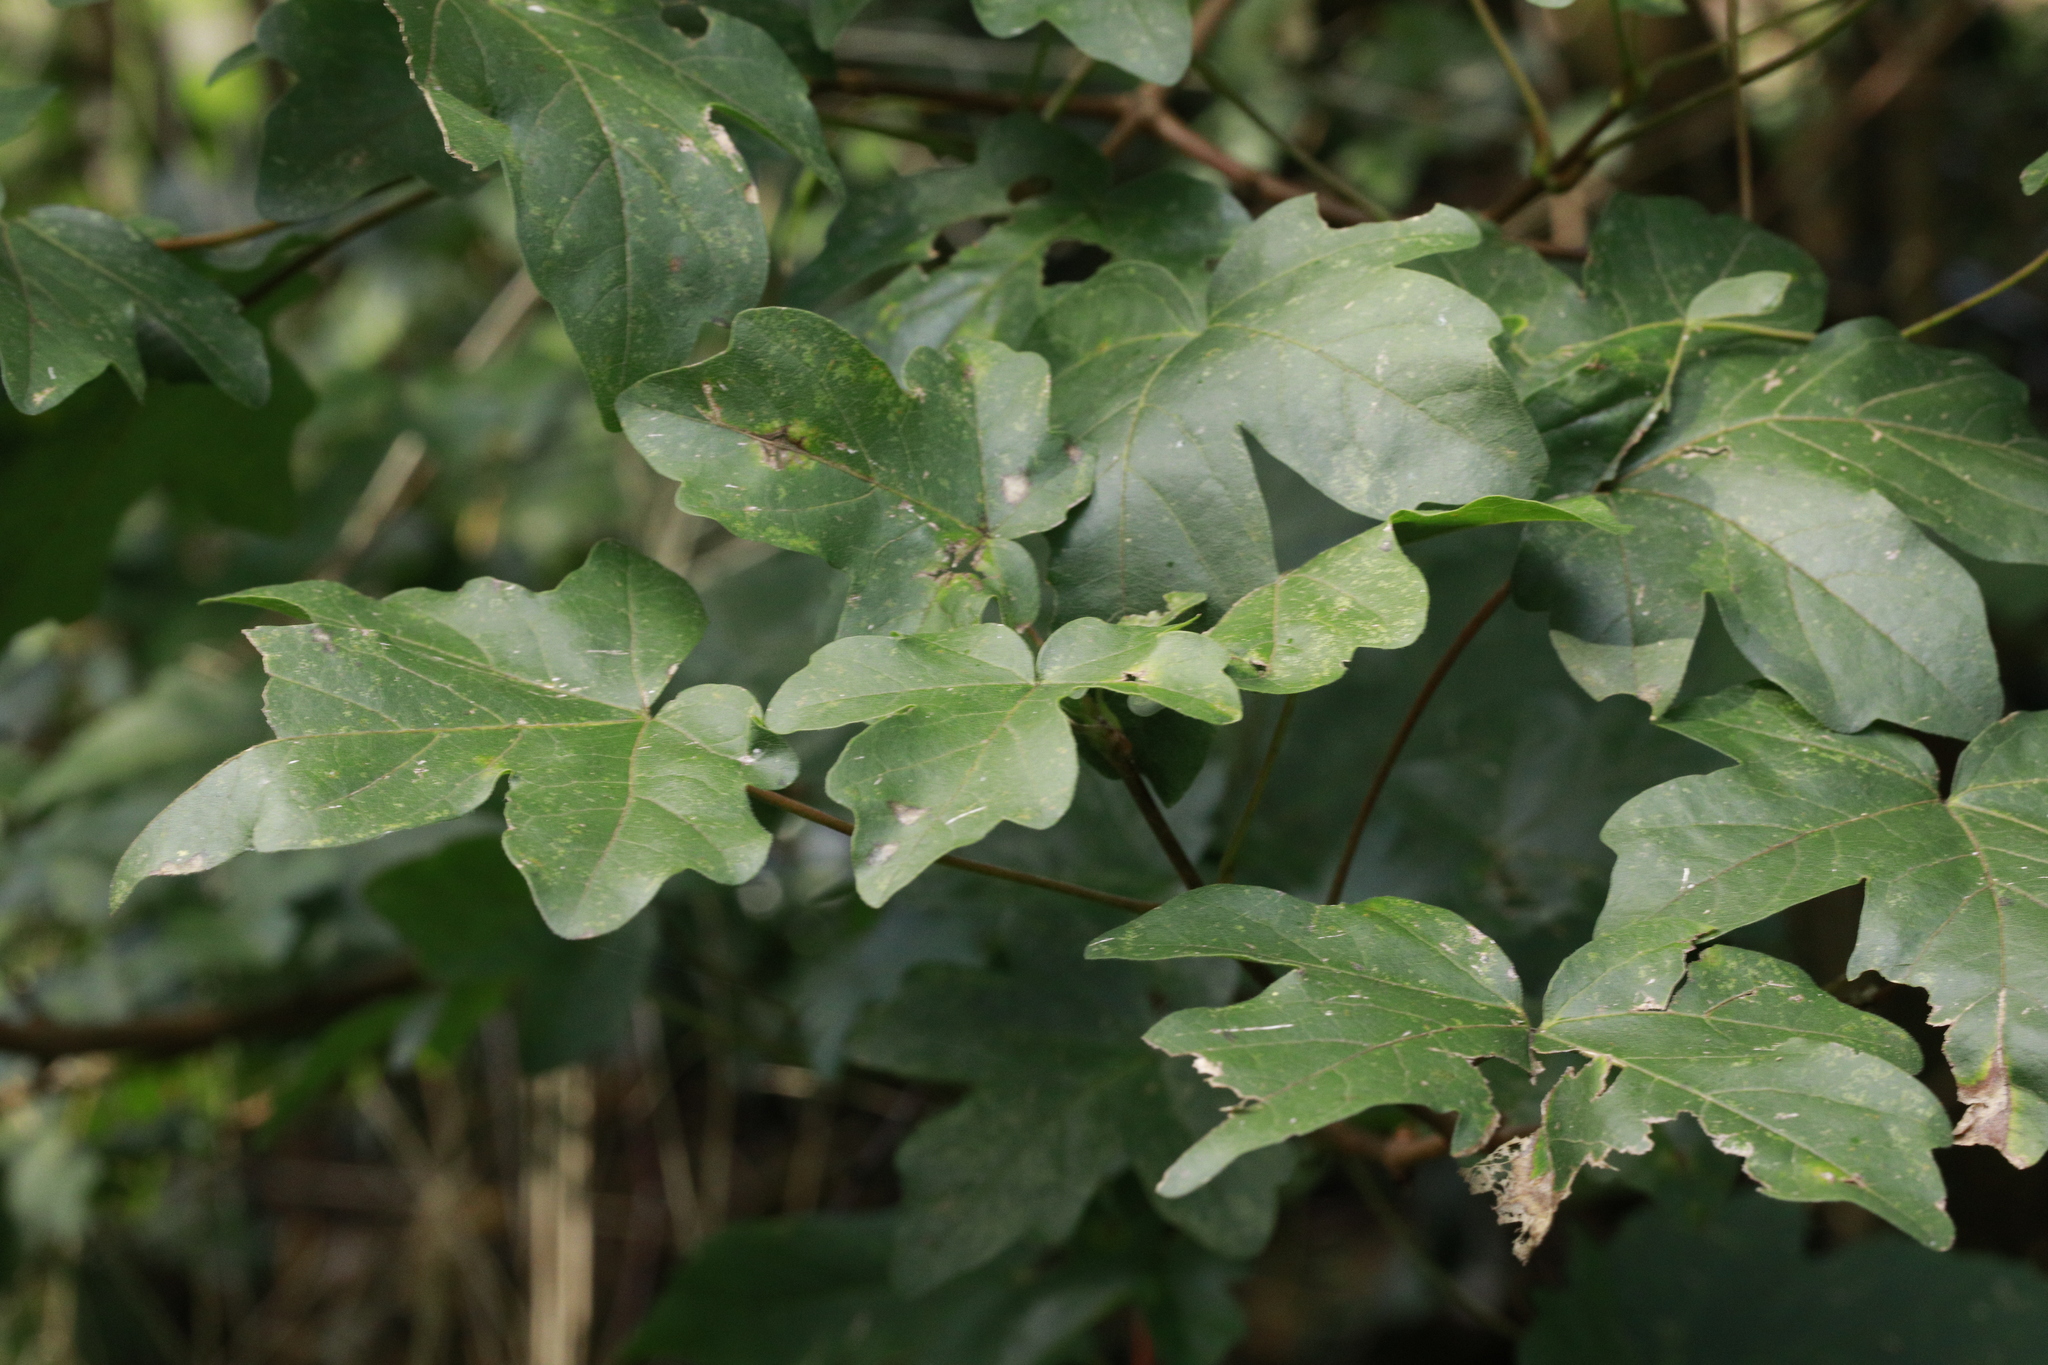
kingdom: Plantae
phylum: Tracheophyta
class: Magnoliopsida
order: Sapindales
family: Sapindaceae
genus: Acer
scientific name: Acer campestre
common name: Field maple
